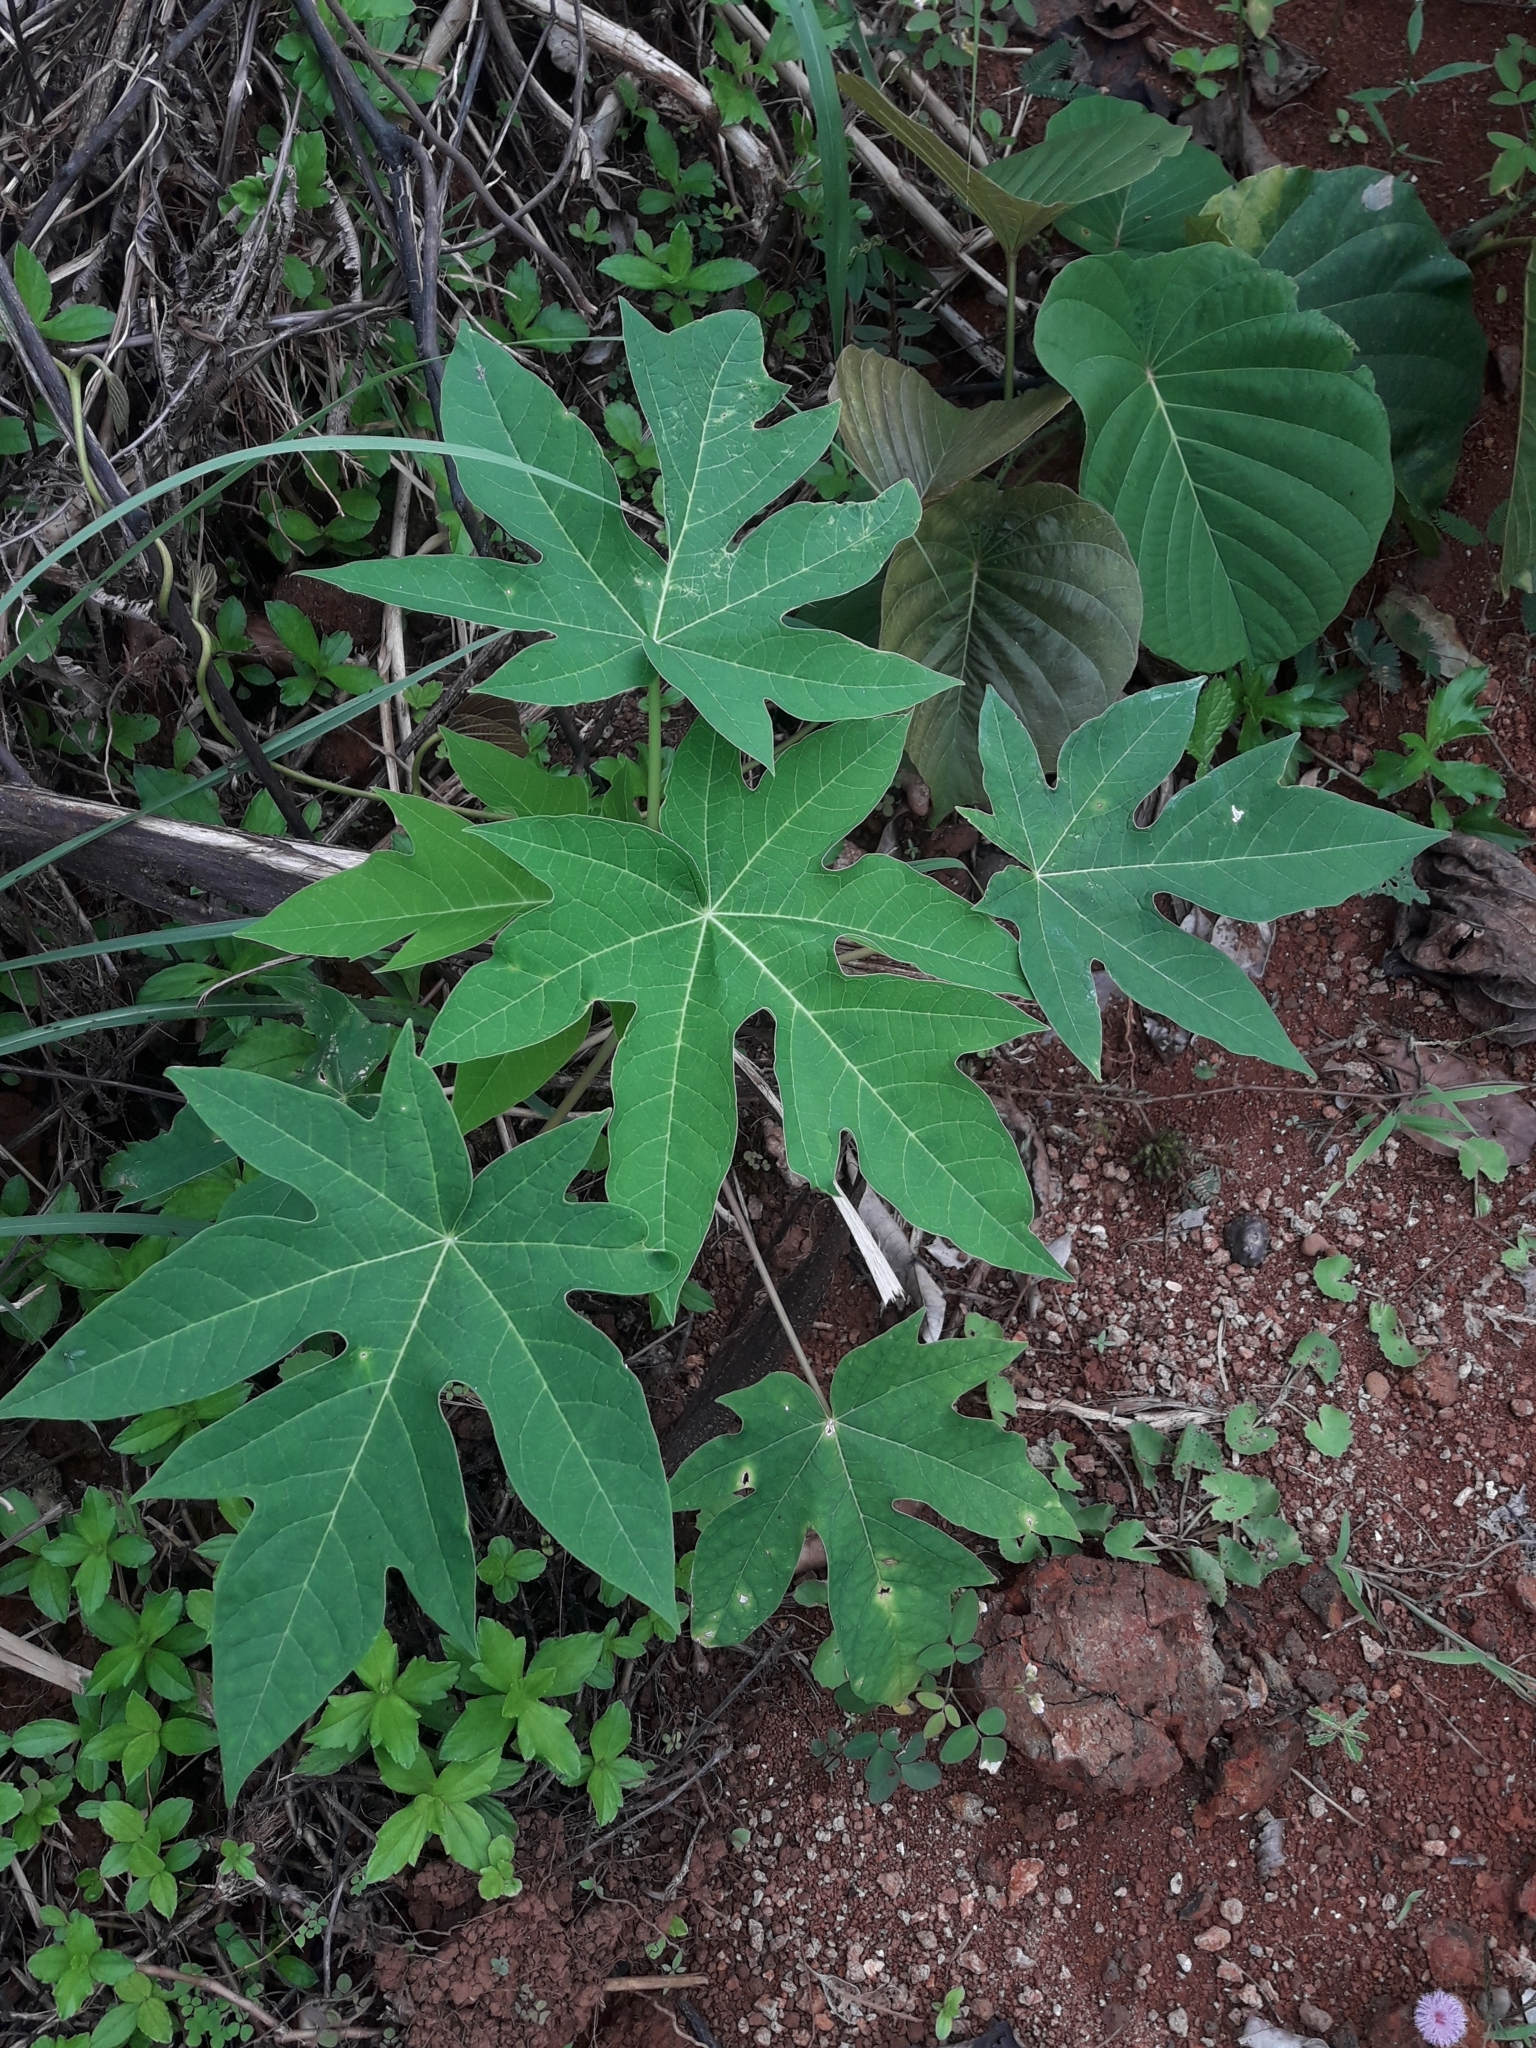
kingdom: Plantae
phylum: Tracheophyta
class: Magnoliopsida
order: Brassicales
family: Caricaceae
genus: Carica
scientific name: Carica papaya
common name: Papaya
